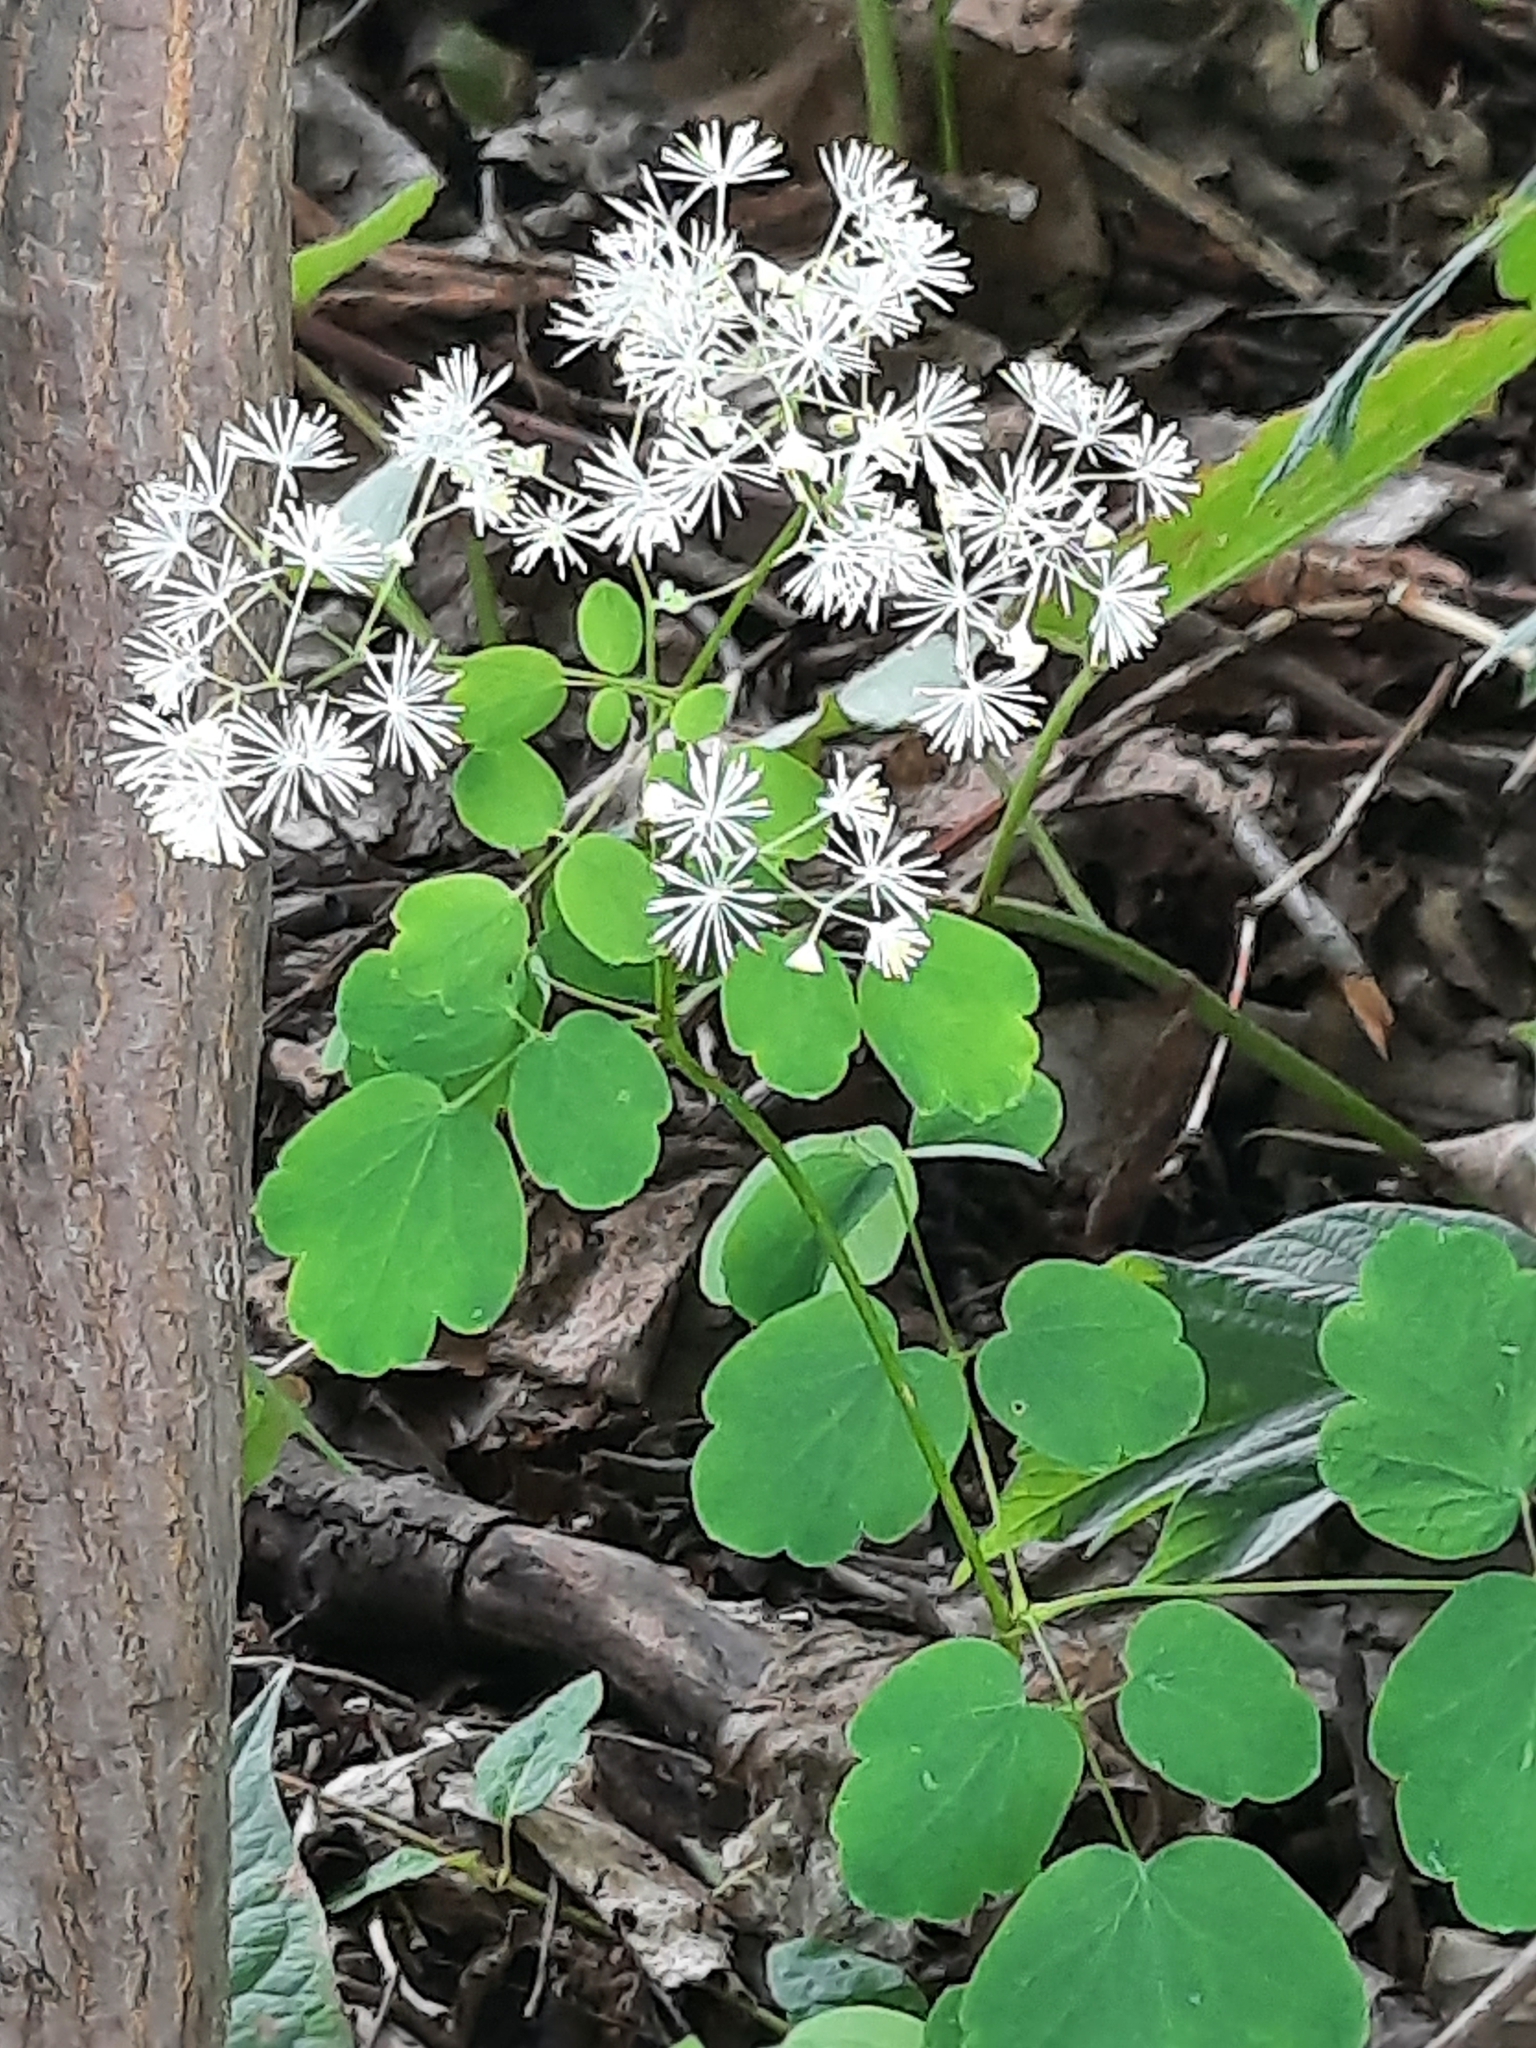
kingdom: Plantae
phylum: Tracheophyta
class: Magnoliopsida
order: Ranunculales
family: Ranunculaceae
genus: Thalictrum
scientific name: Thalictrum pubescens
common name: King-of-the-meadow
